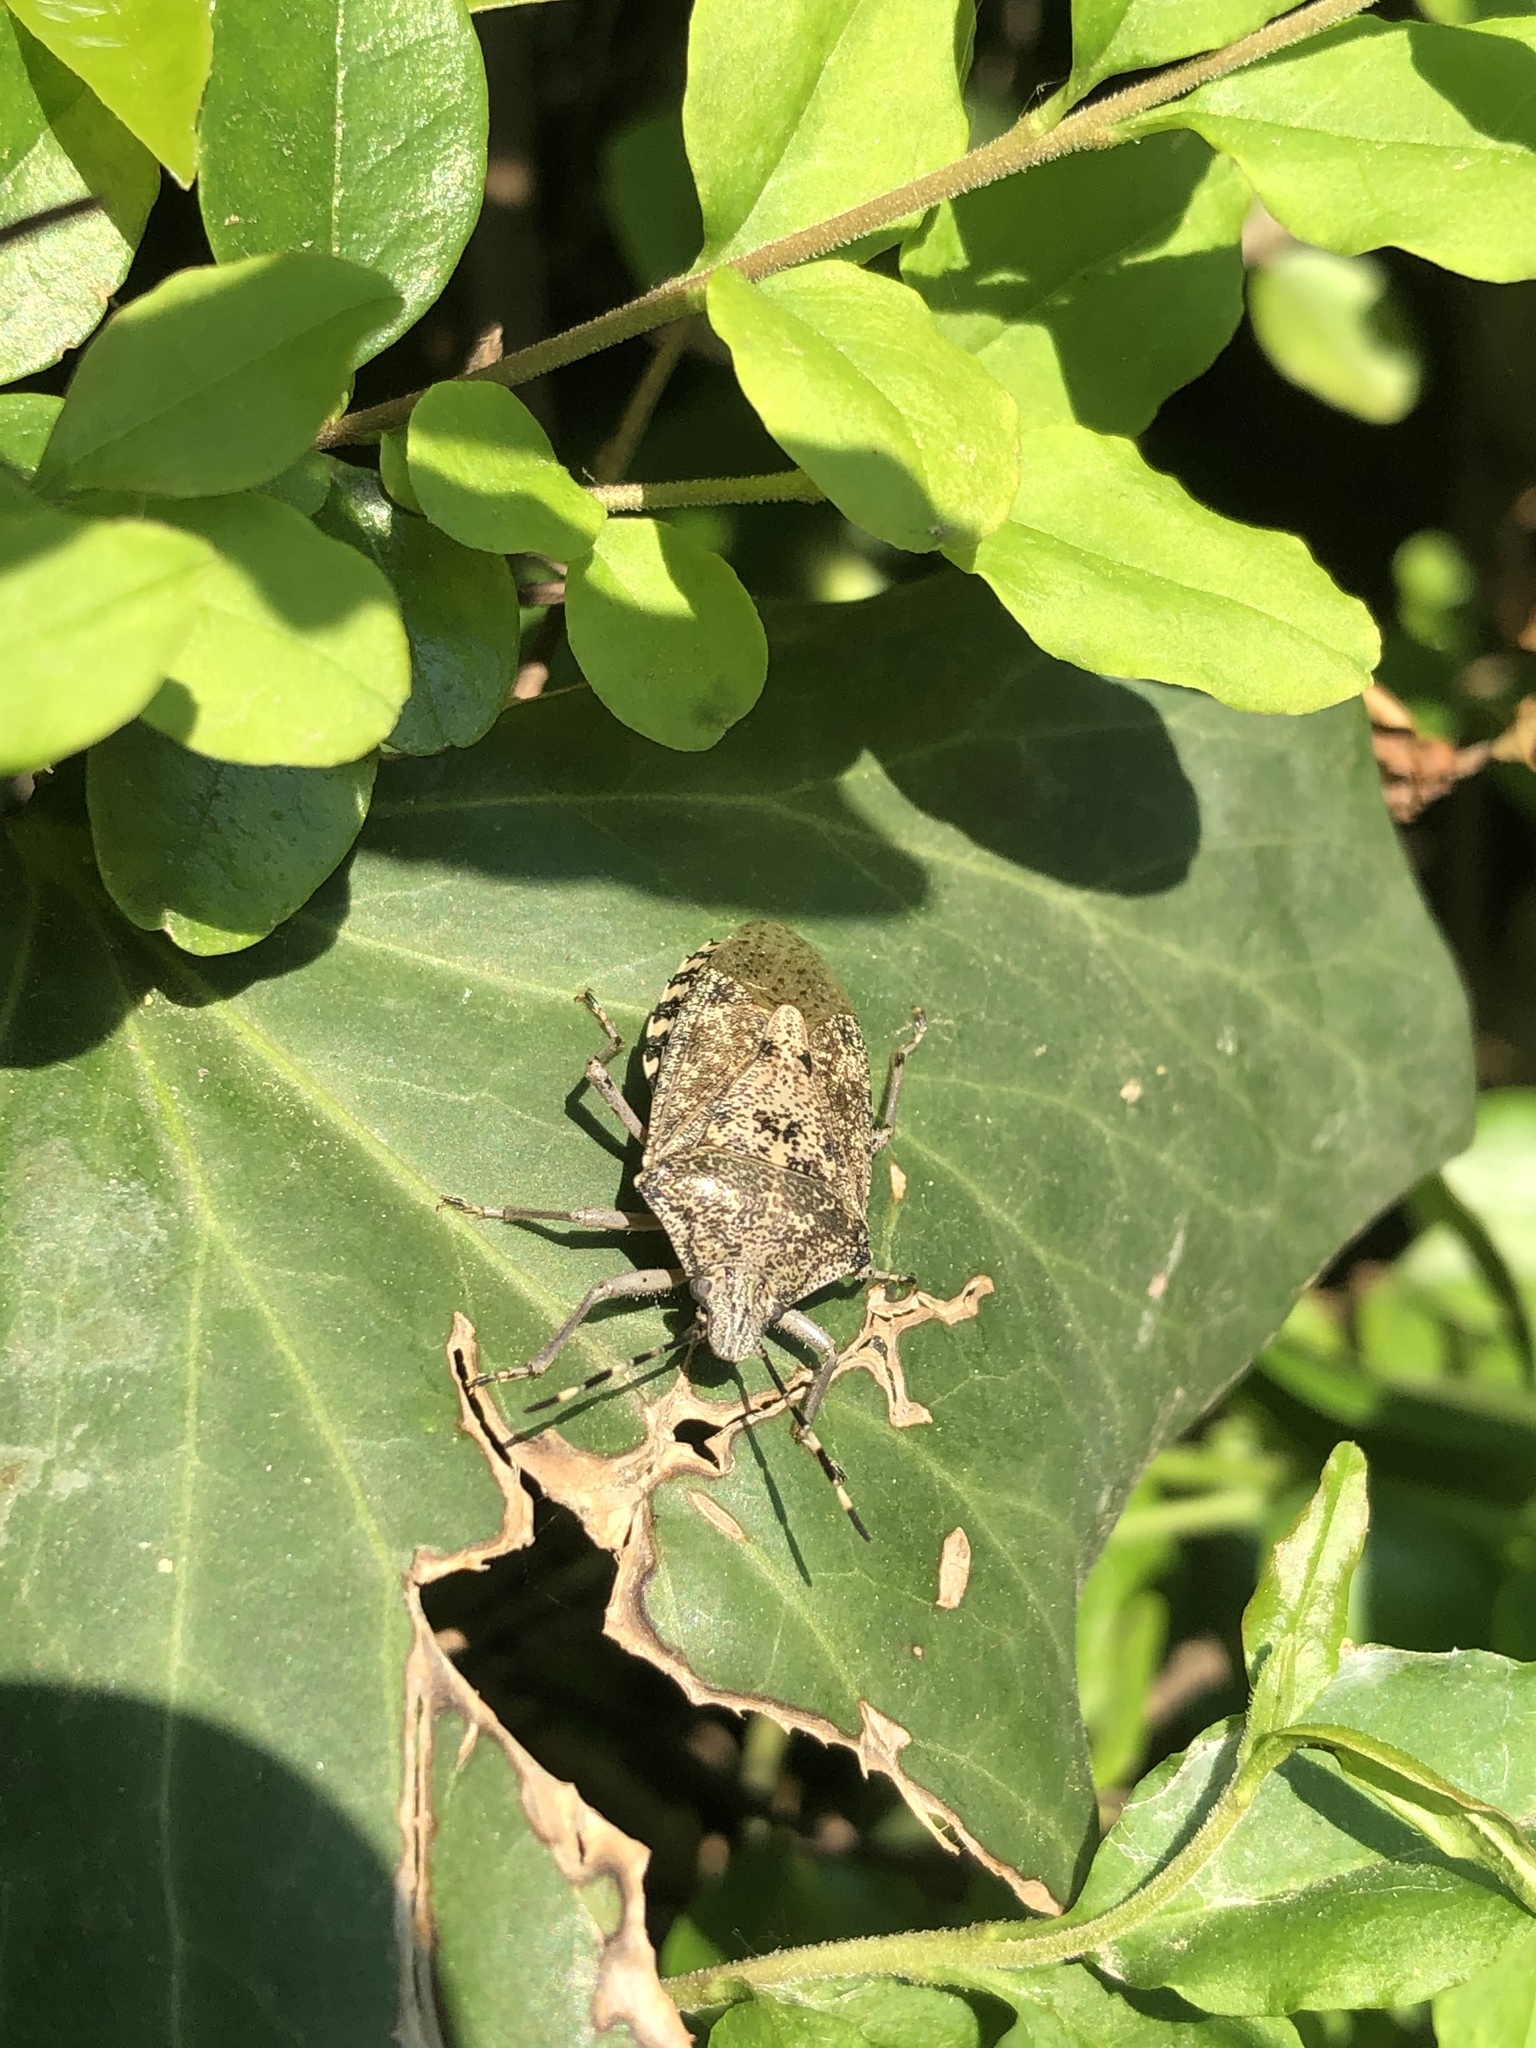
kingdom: Animalia
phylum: Arthropoda
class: Insecta
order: Hemiptera
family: Pentatomidae
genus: Rhaphigaster
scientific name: Rhaphigaster nebulosa
